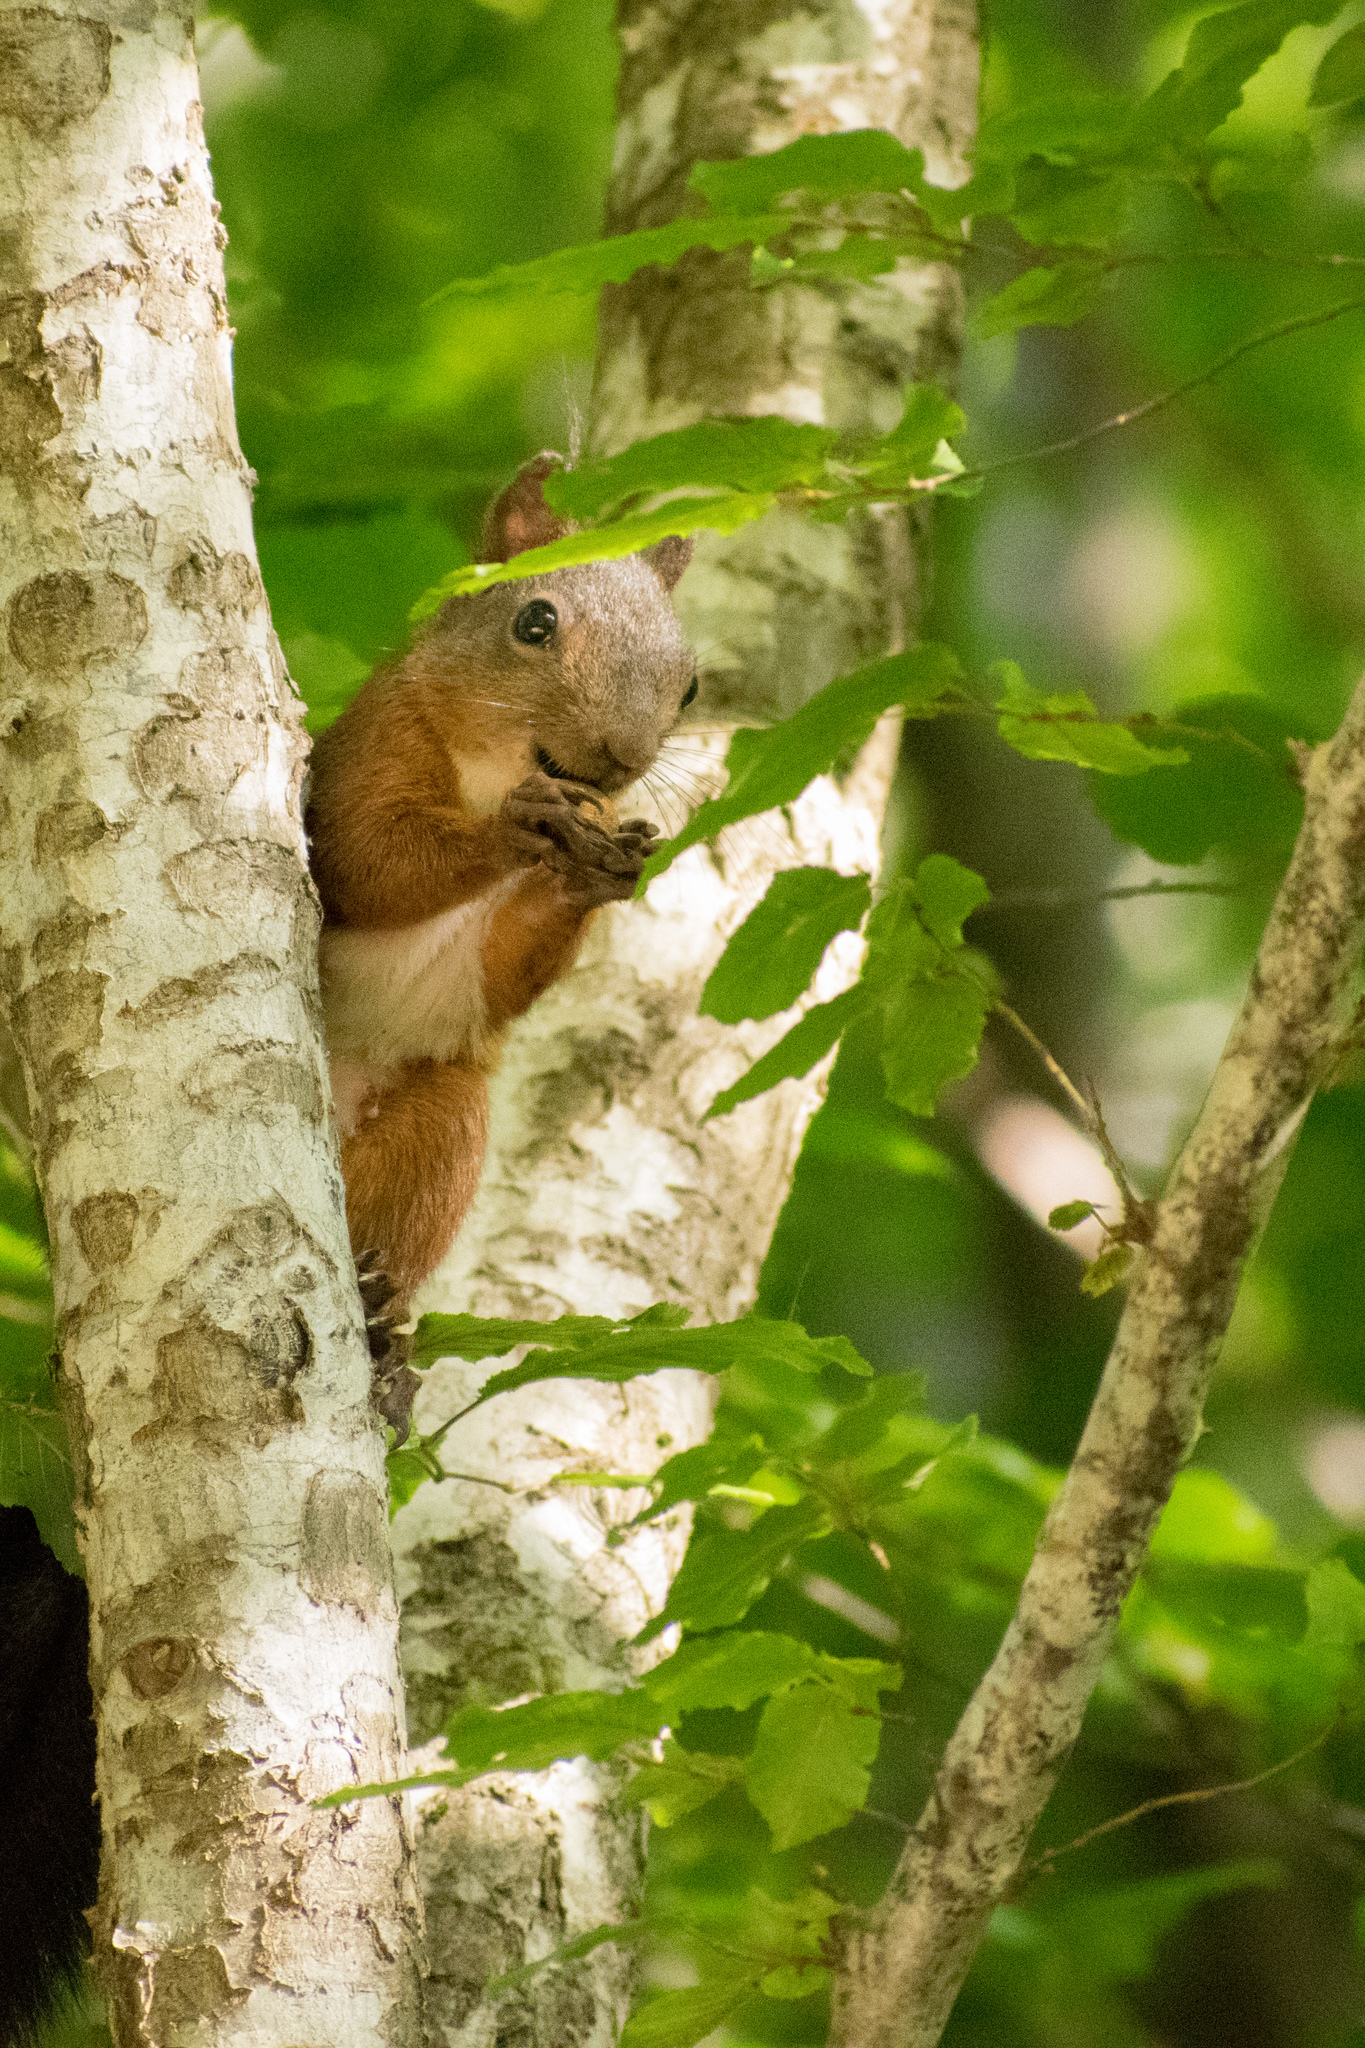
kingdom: Animalia
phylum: Chordata
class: Mammalia
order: Rodentia
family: Sciuridae
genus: Sciurus
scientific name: Sciurus vulgaris
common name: Eurasian red squirrel
